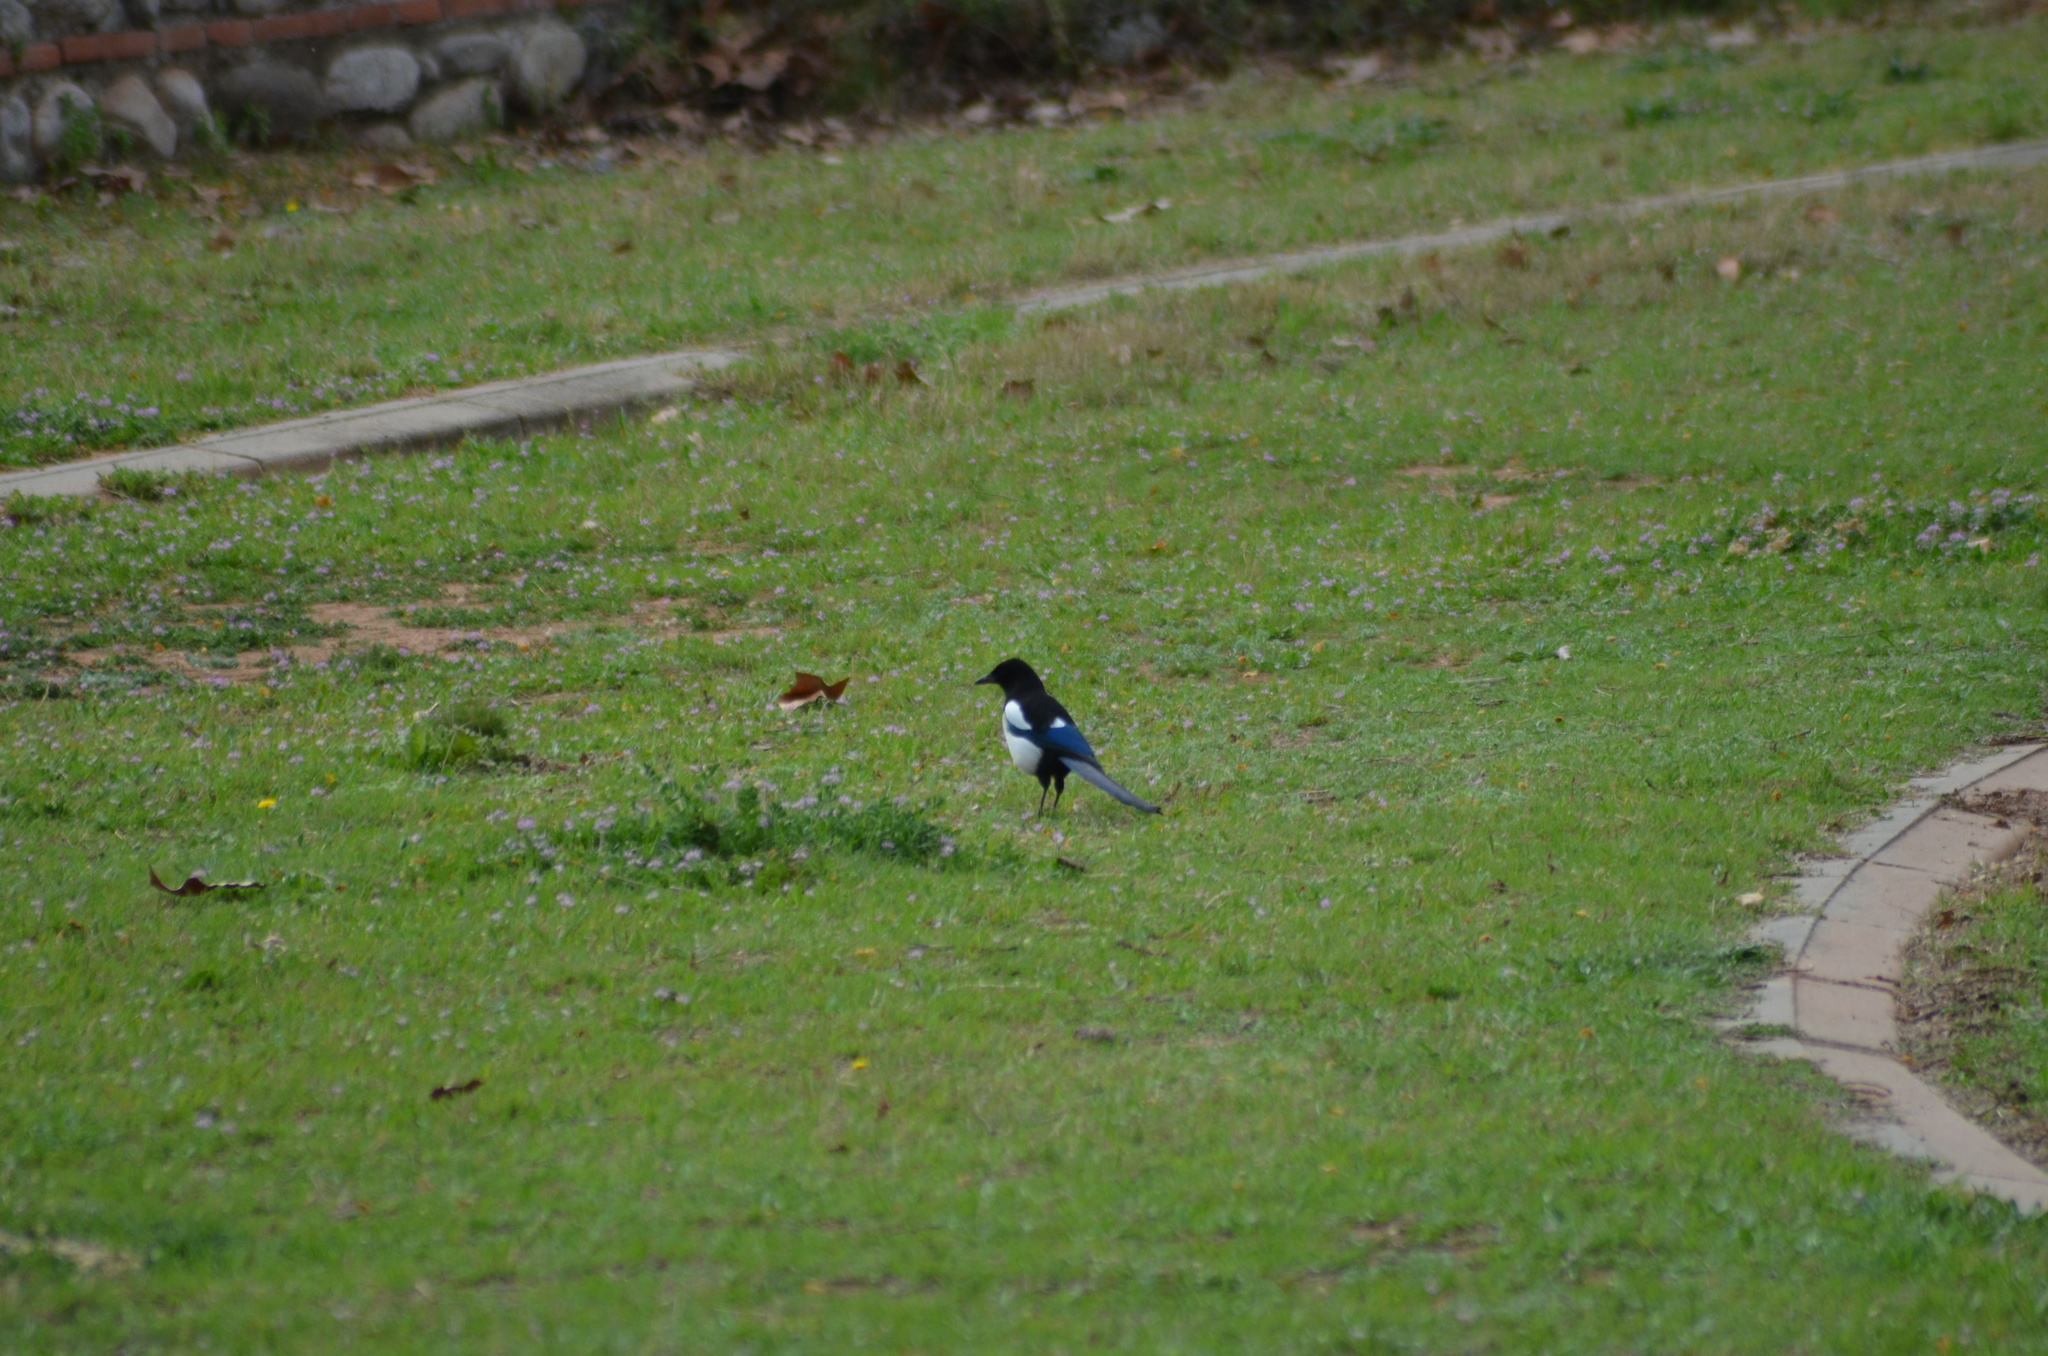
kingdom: Animalia
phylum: Chordata
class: Aves
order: Passeriformes
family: Corvidae
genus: Pica
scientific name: Pica pica
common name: Eurasian magpie
